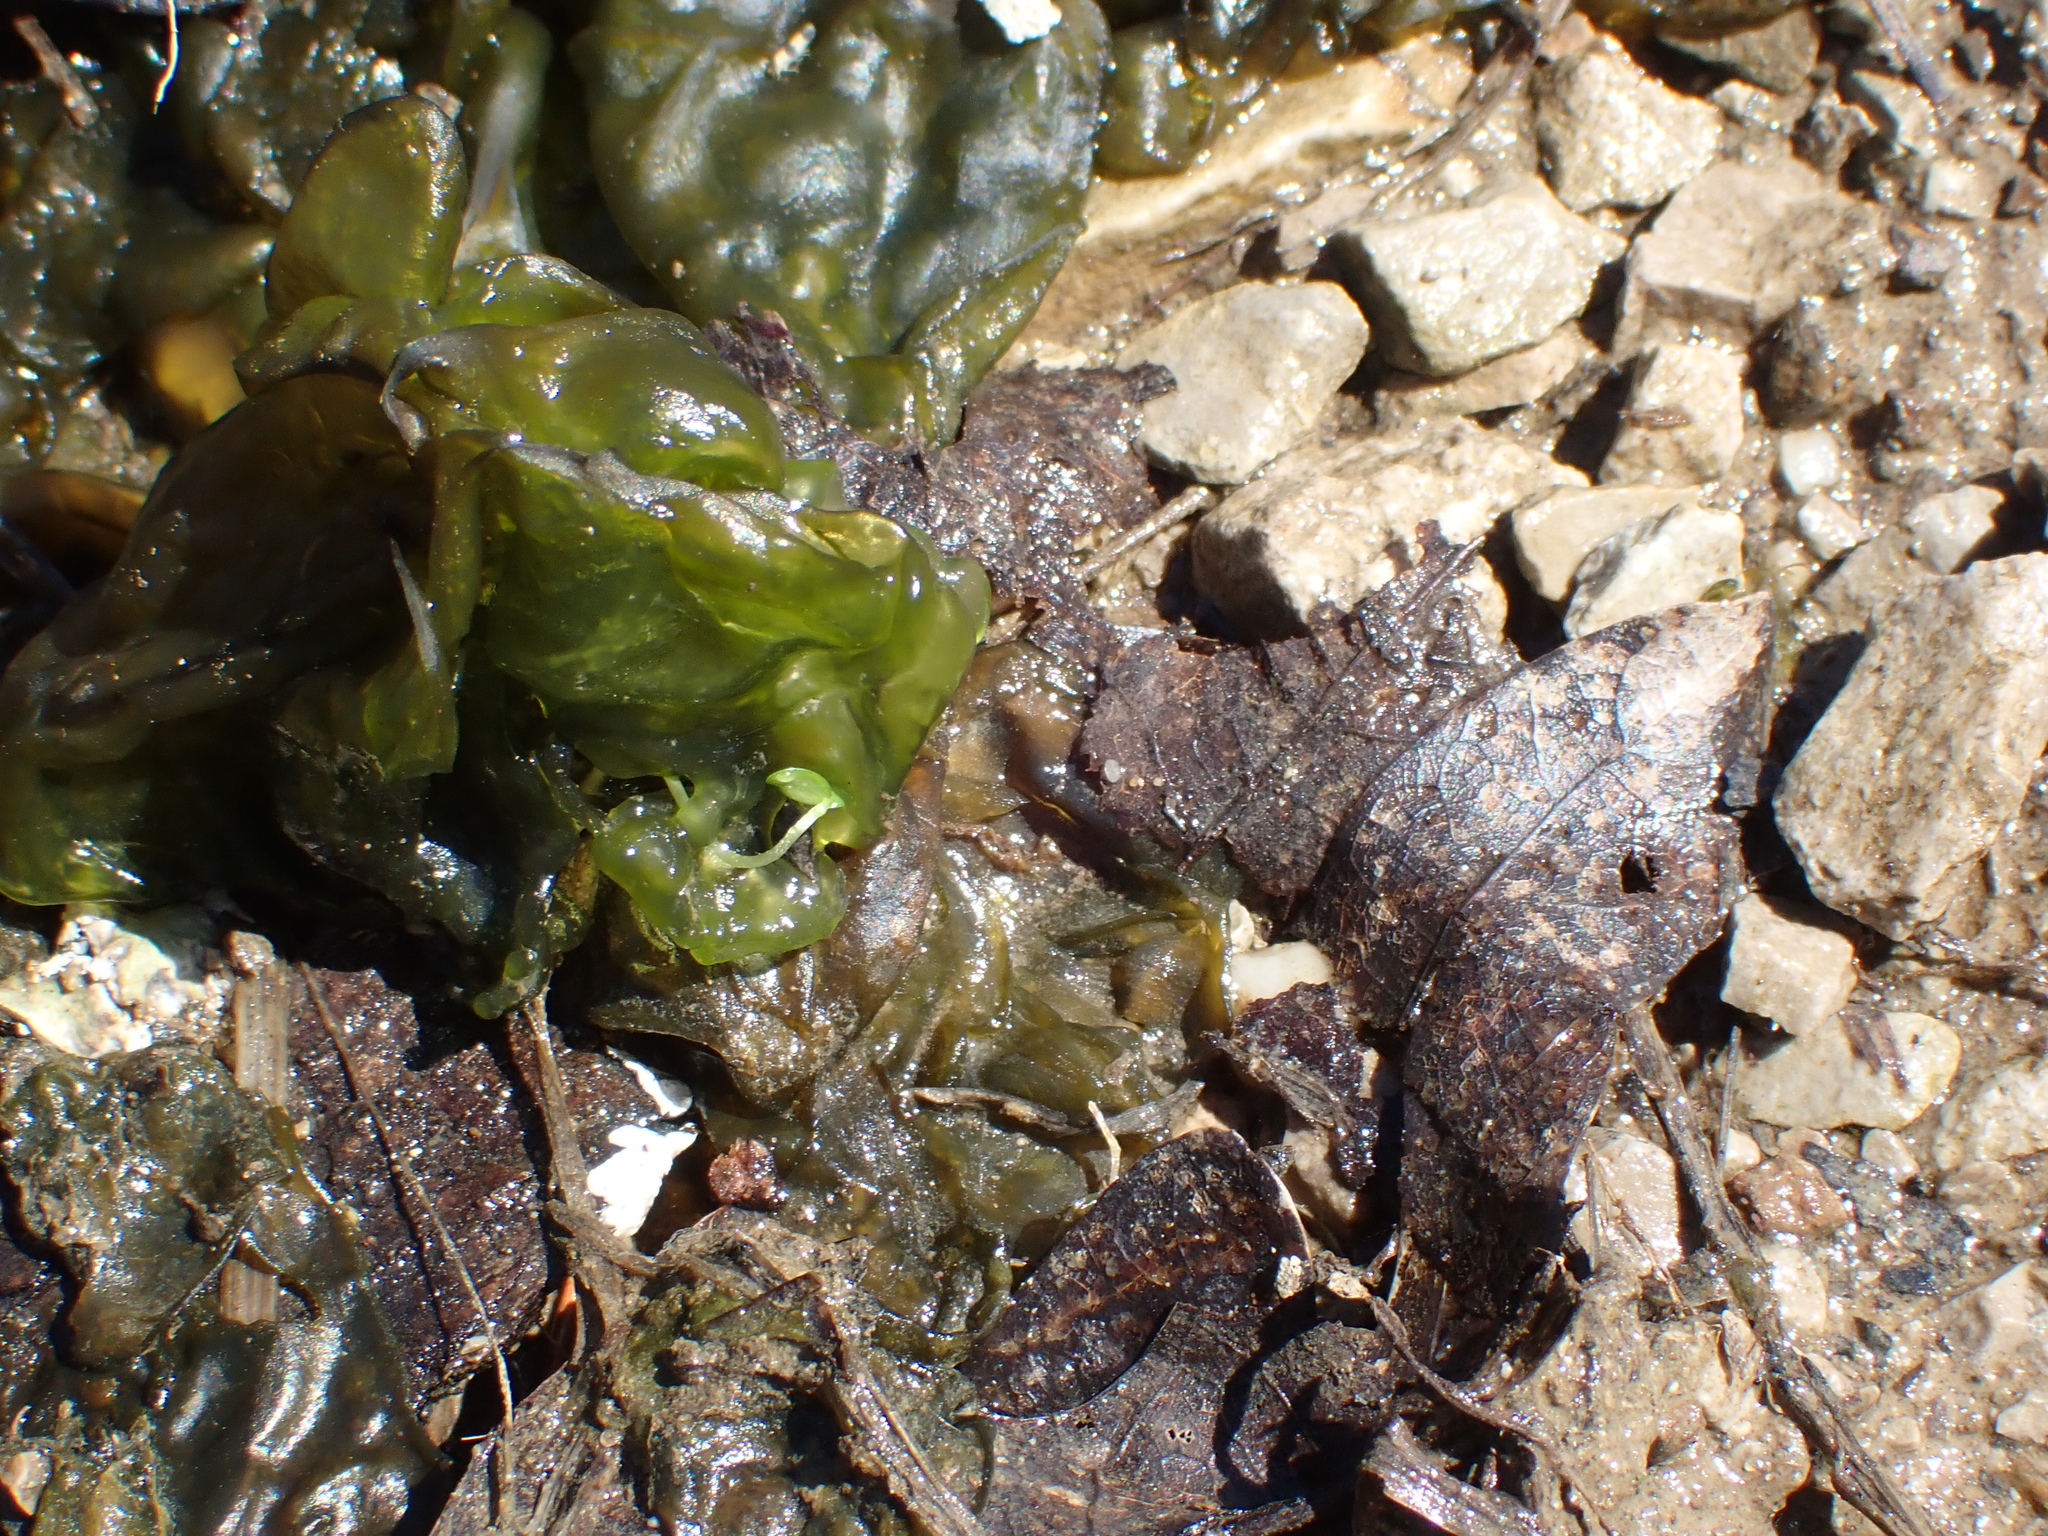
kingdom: Bacteria
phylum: Cyanobacteria
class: Cyanobacteriia
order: Cyanobacteriales
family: Nostocaceae
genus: Nostoc
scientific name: Nostoc commune
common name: Star jelly
